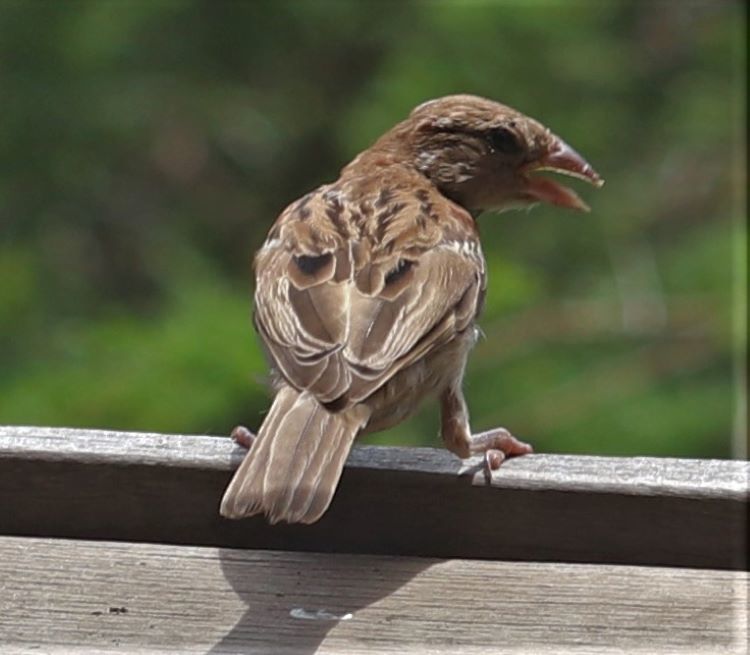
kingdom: Animalia
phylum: Chordata
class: Aves
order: Passeriformes
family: Passeridae
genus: Passer
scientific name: Passer domesticus
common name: House sparrow
